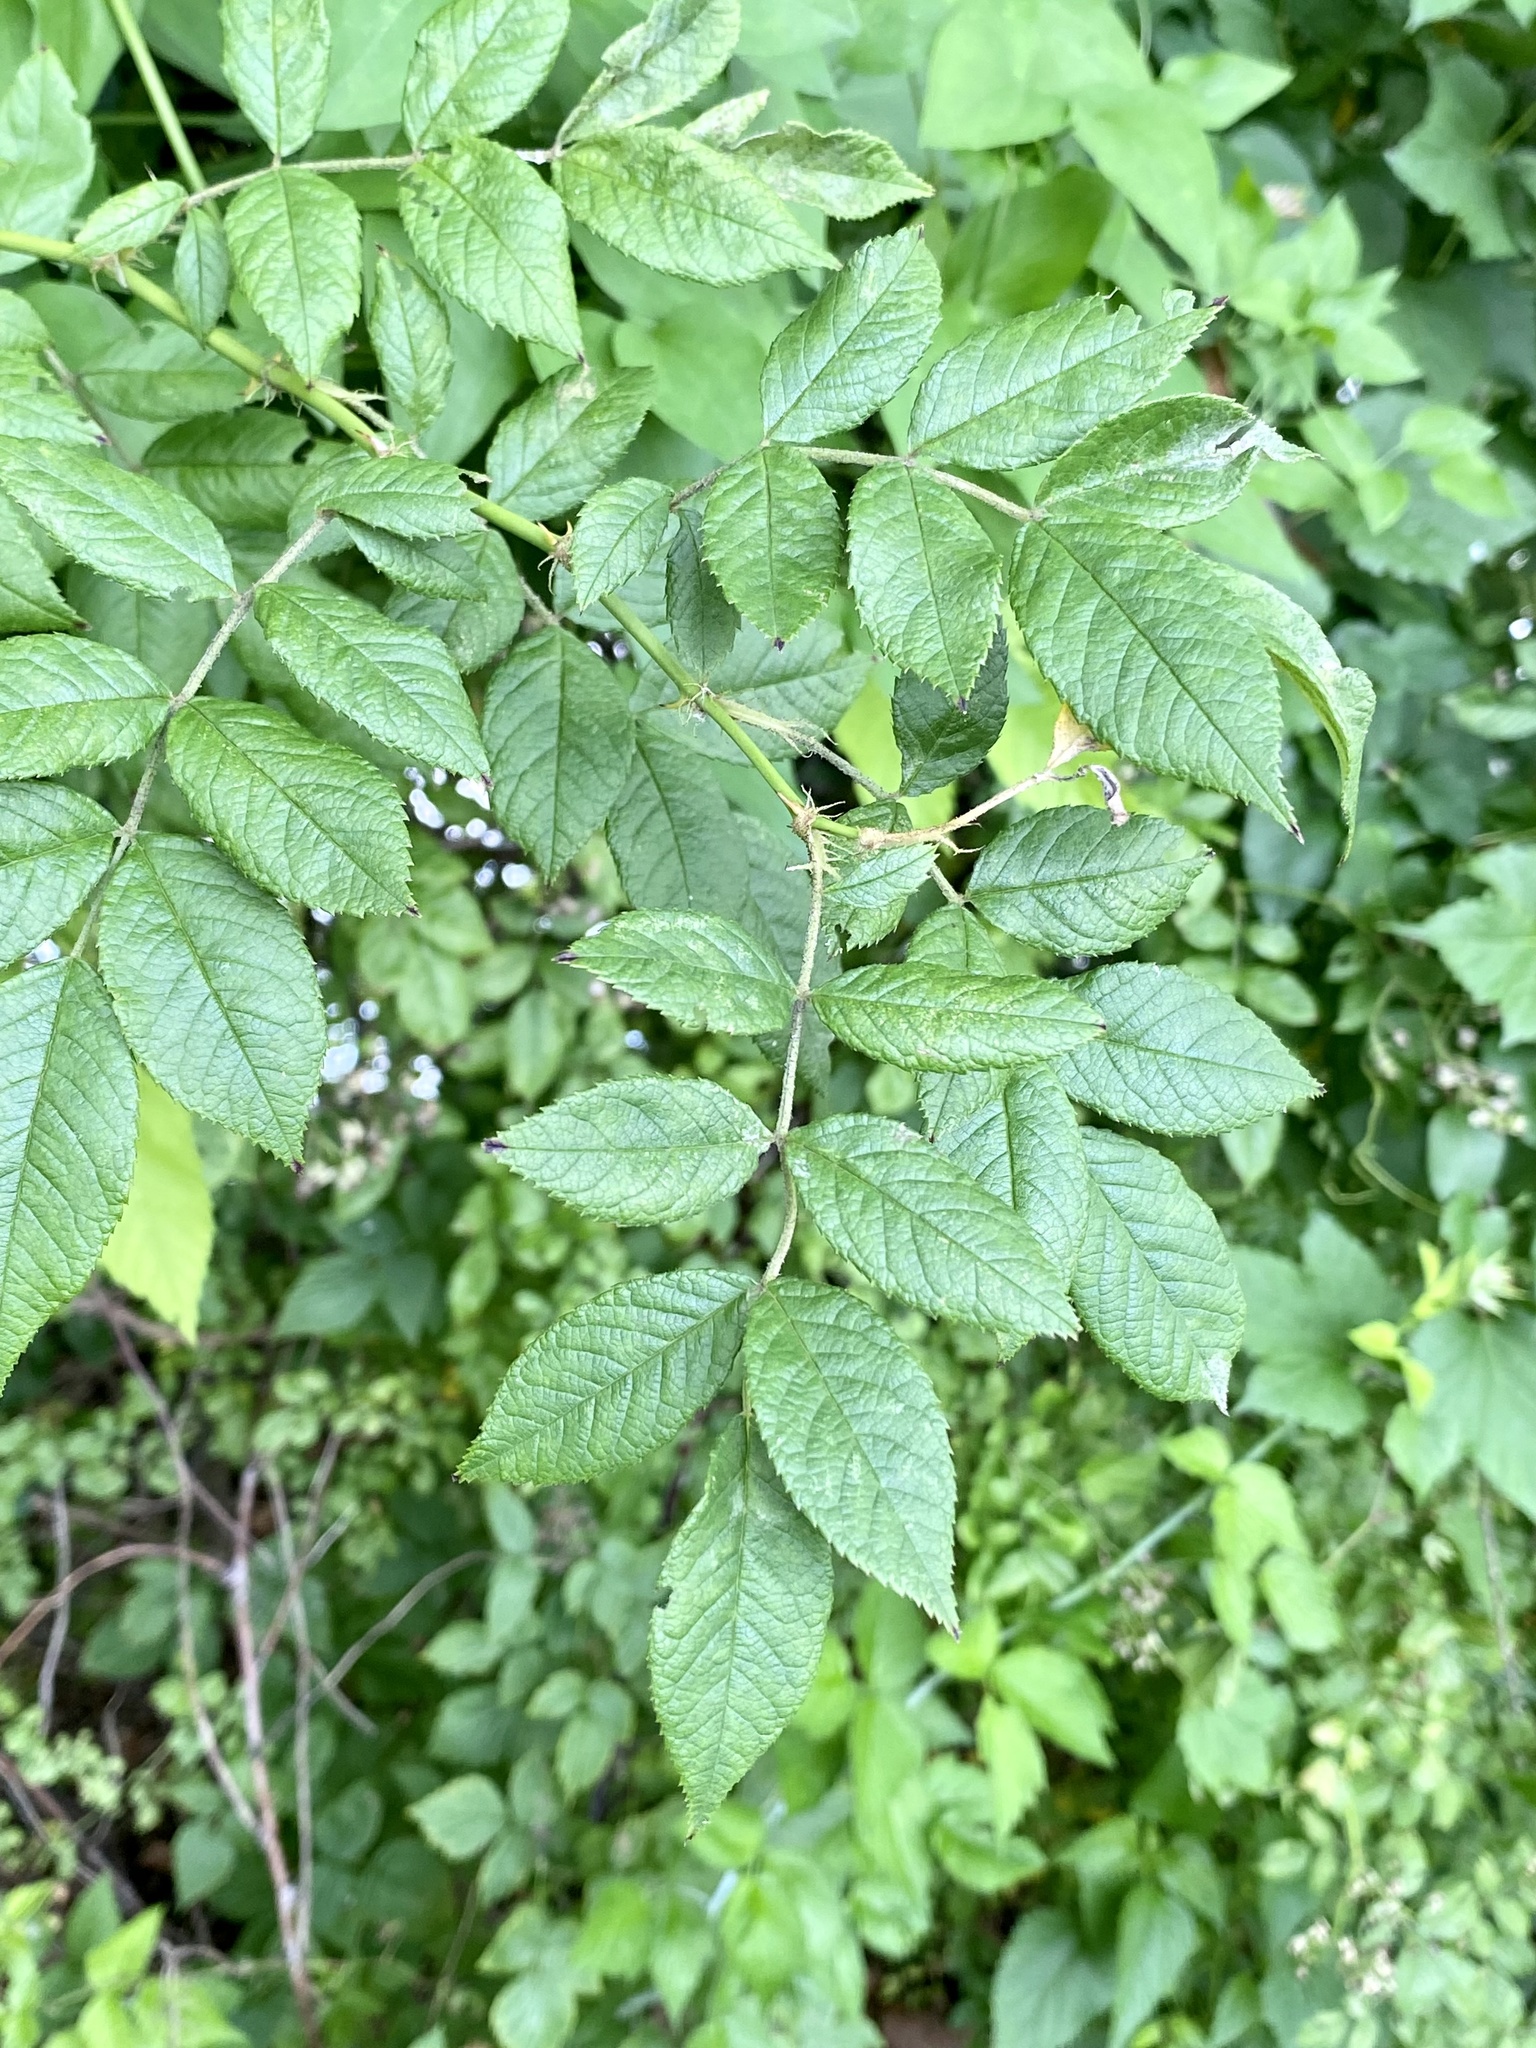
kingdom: Plantae
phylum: Tracheophyta
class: Magnoliopsida
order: Rosales
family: Rosaceae
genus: Rosa
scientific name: Rosa multiflora
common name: Multiflora rose
